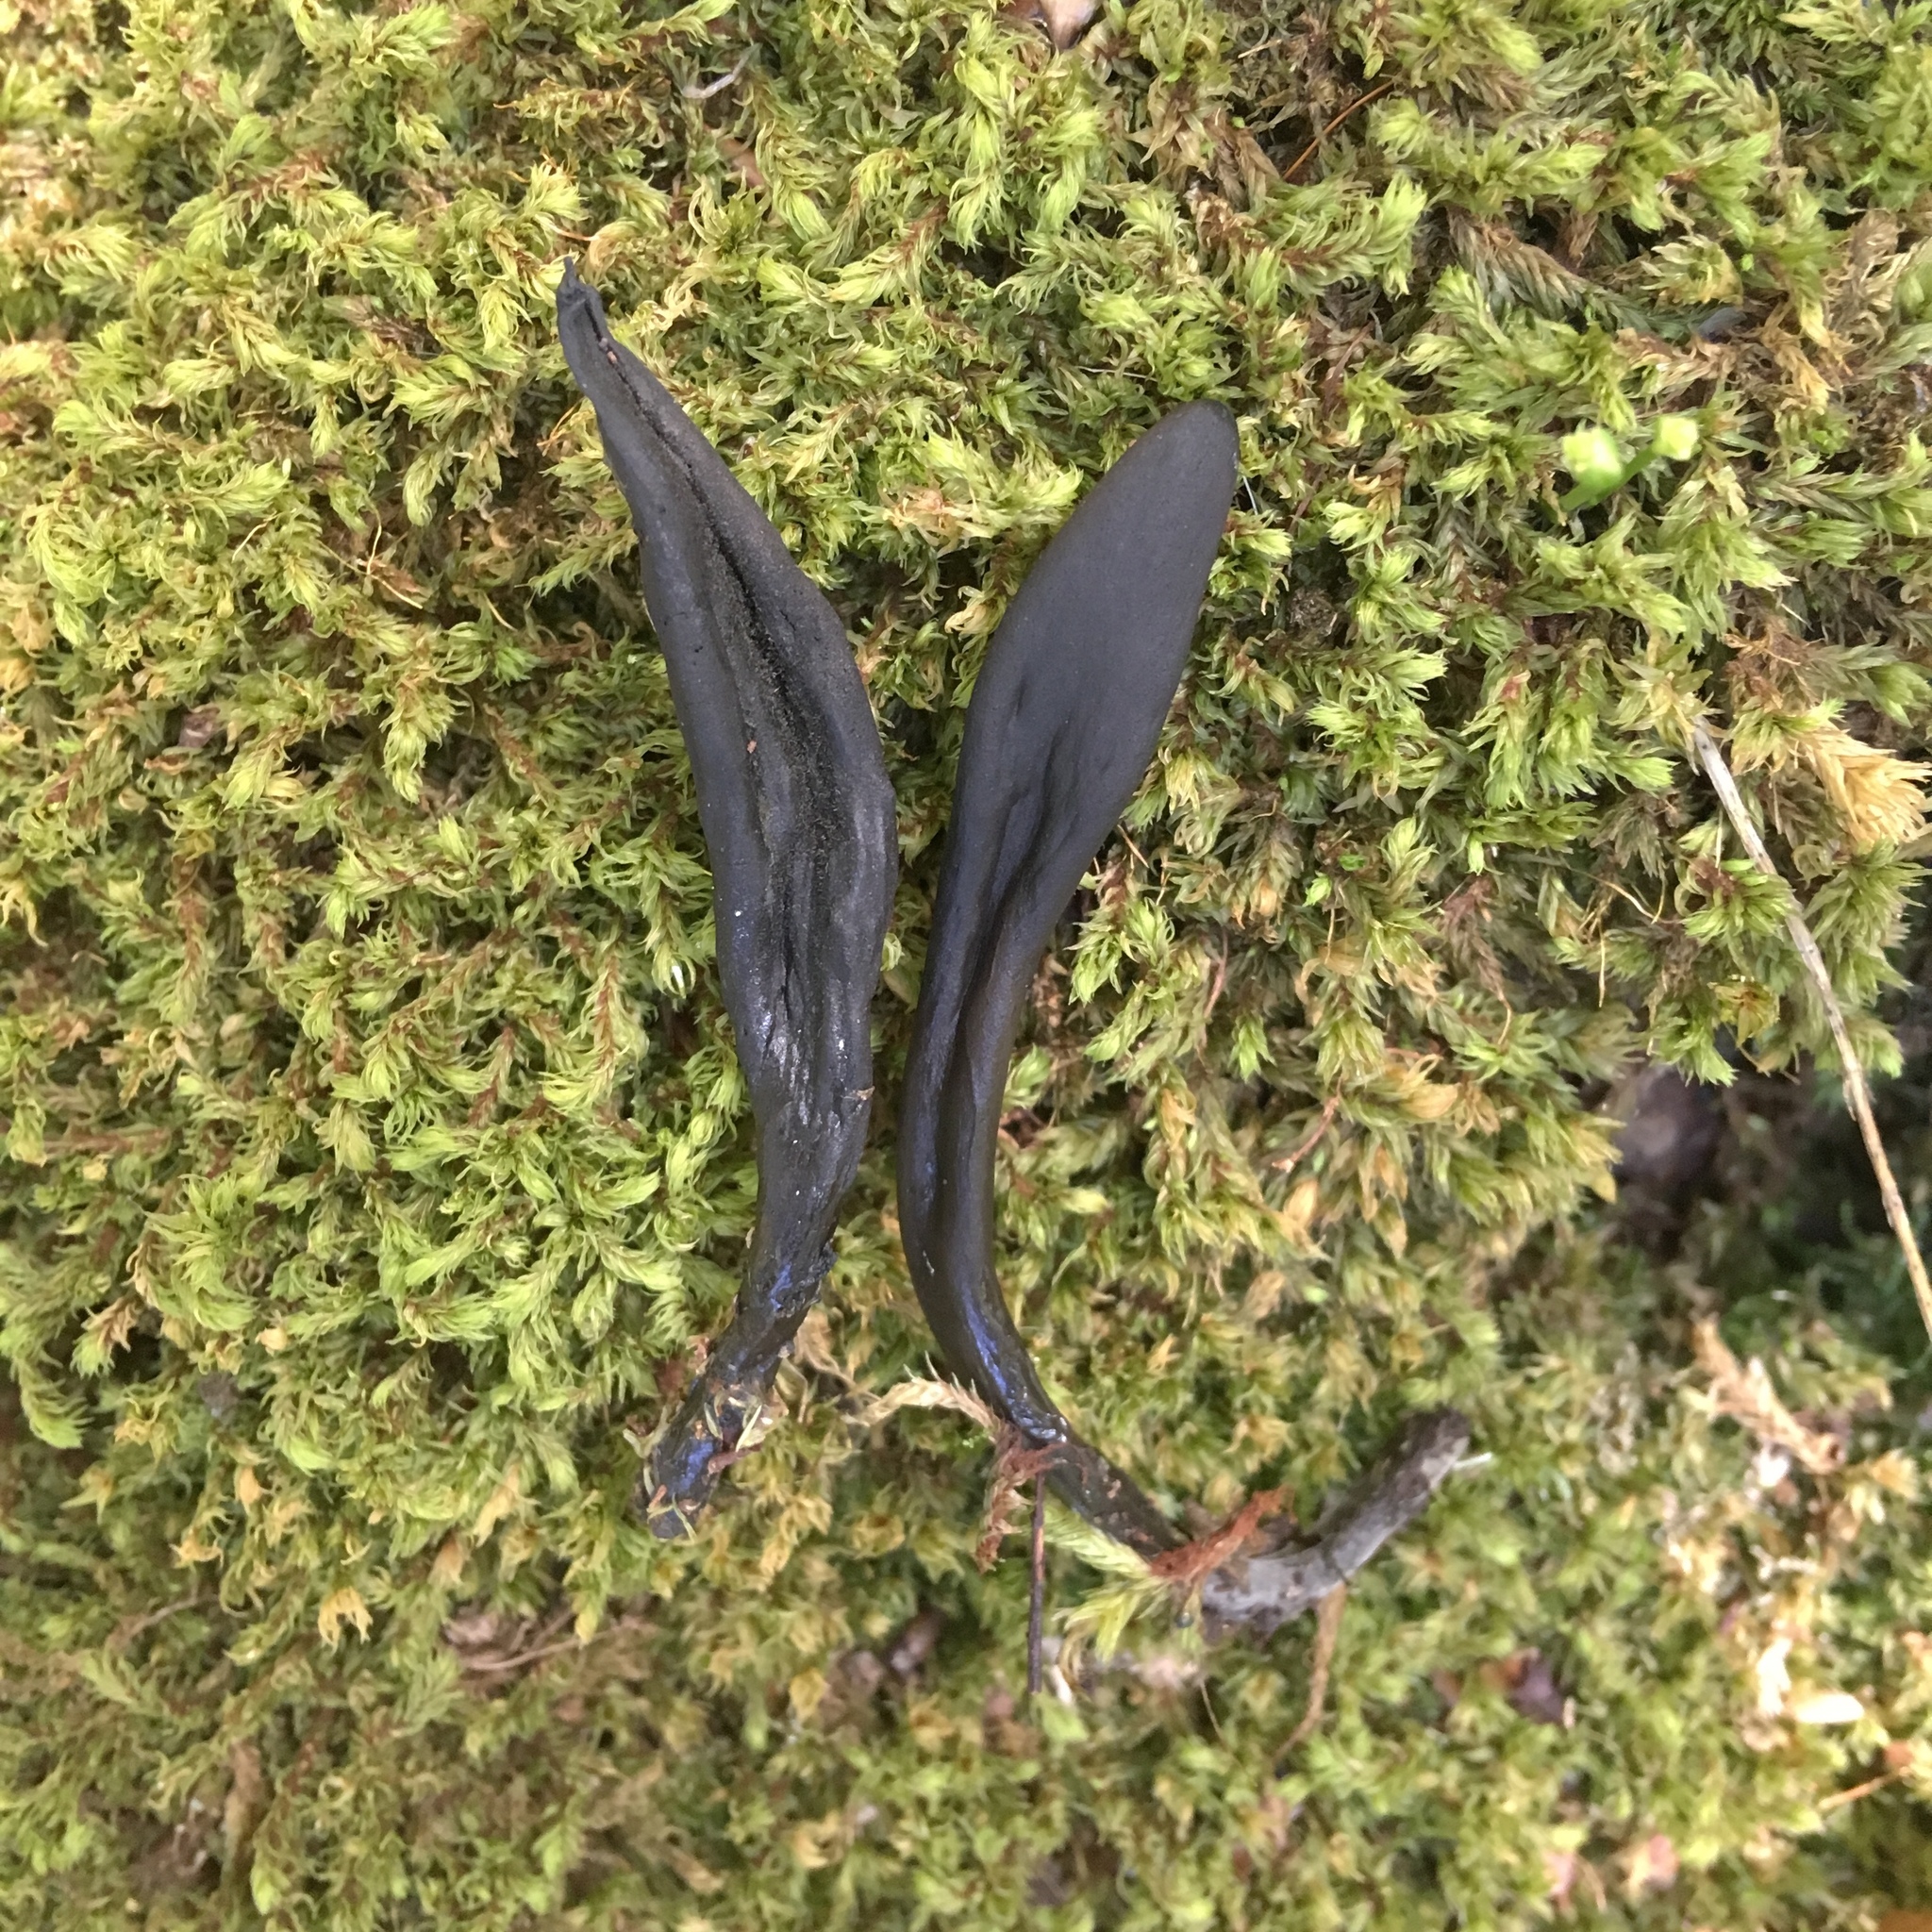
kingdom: Fungi
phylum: Ascomycota
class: Geoglossomycetes
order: Geoglossales
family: Geoglossaceae
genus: Trichoglossum
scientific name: Trichoglossum walteri
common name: Short-spored earthtongue
